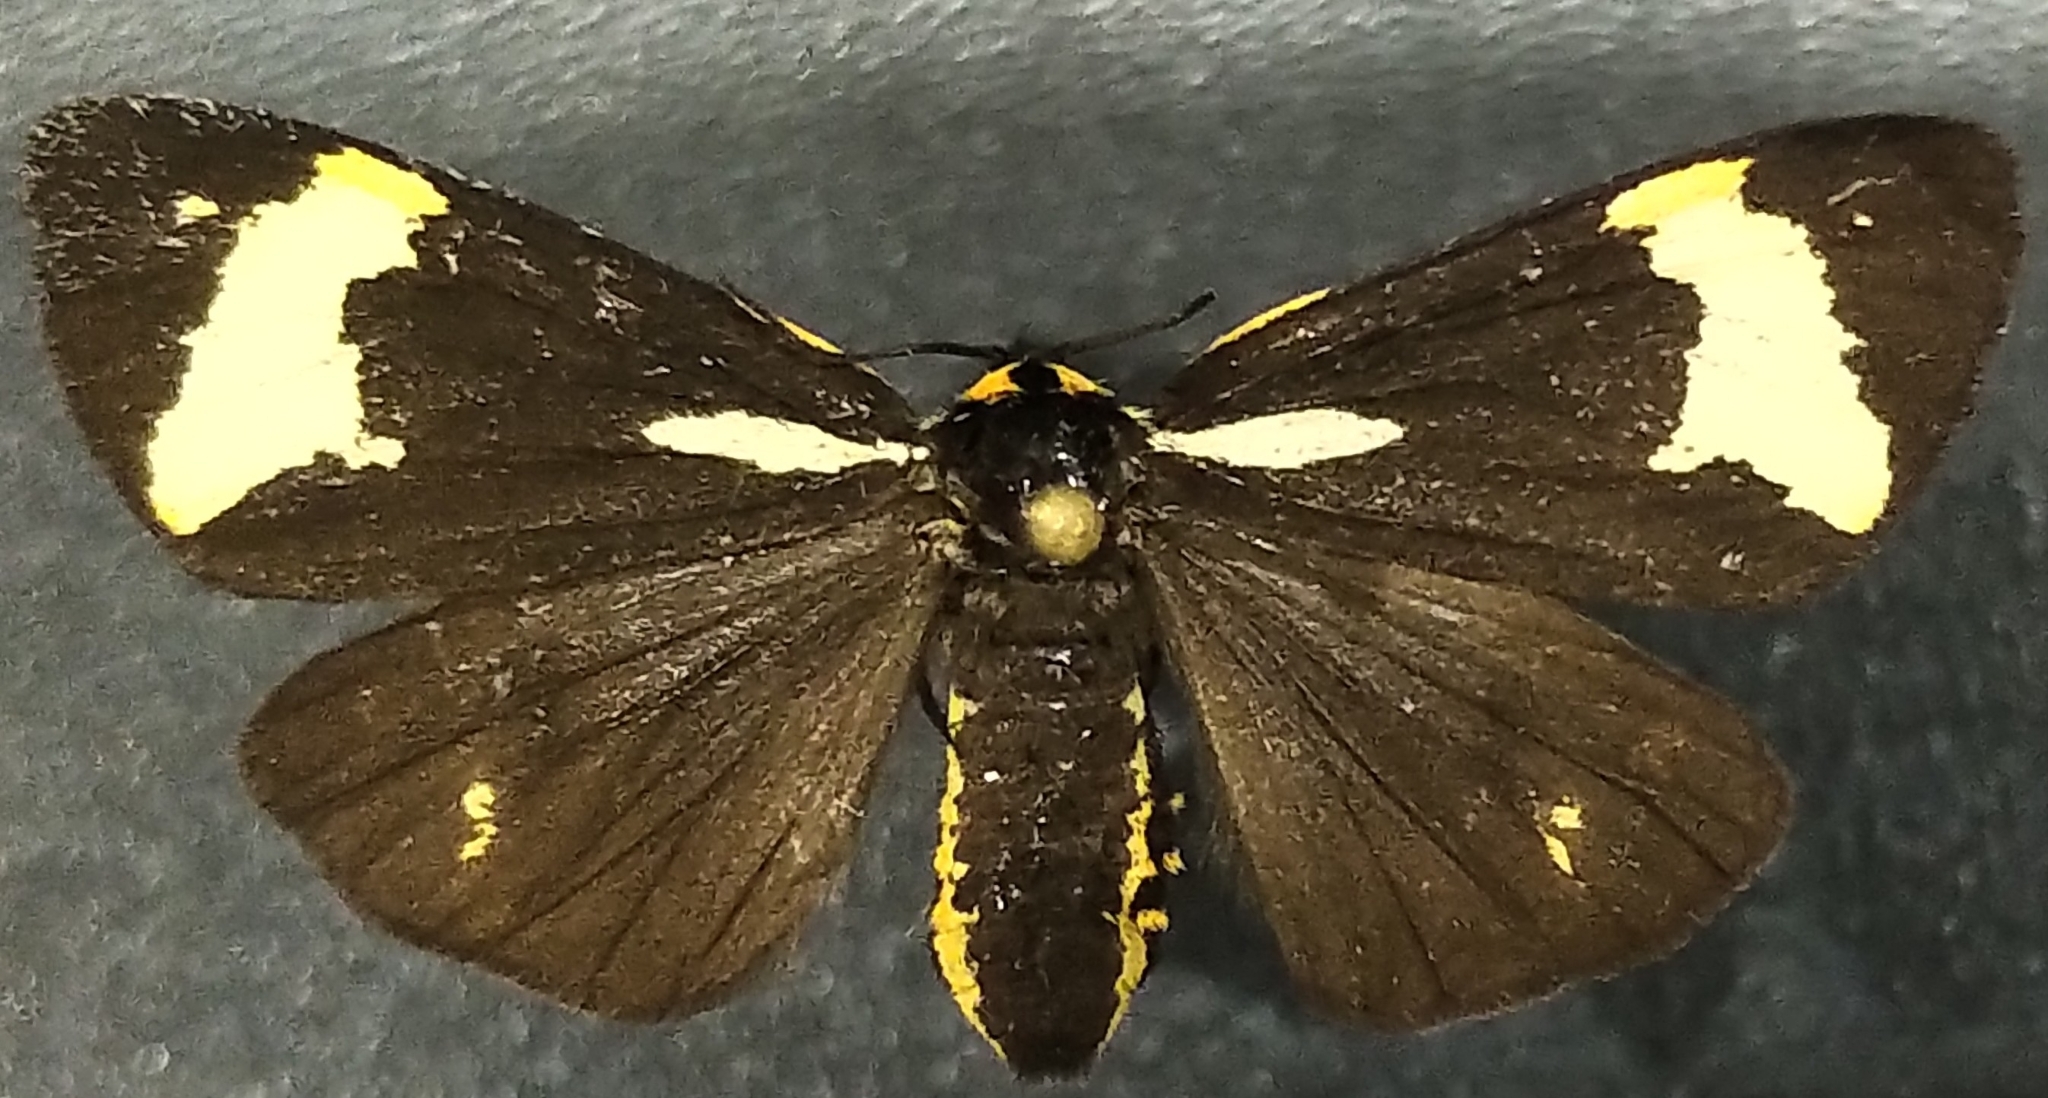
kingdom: Animalia
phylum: Arthropoda
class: Insecta
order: Lepidoptera
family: Erebidae
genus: Parasemia
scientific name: Parasemia plantaginis
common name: Wood tiger
